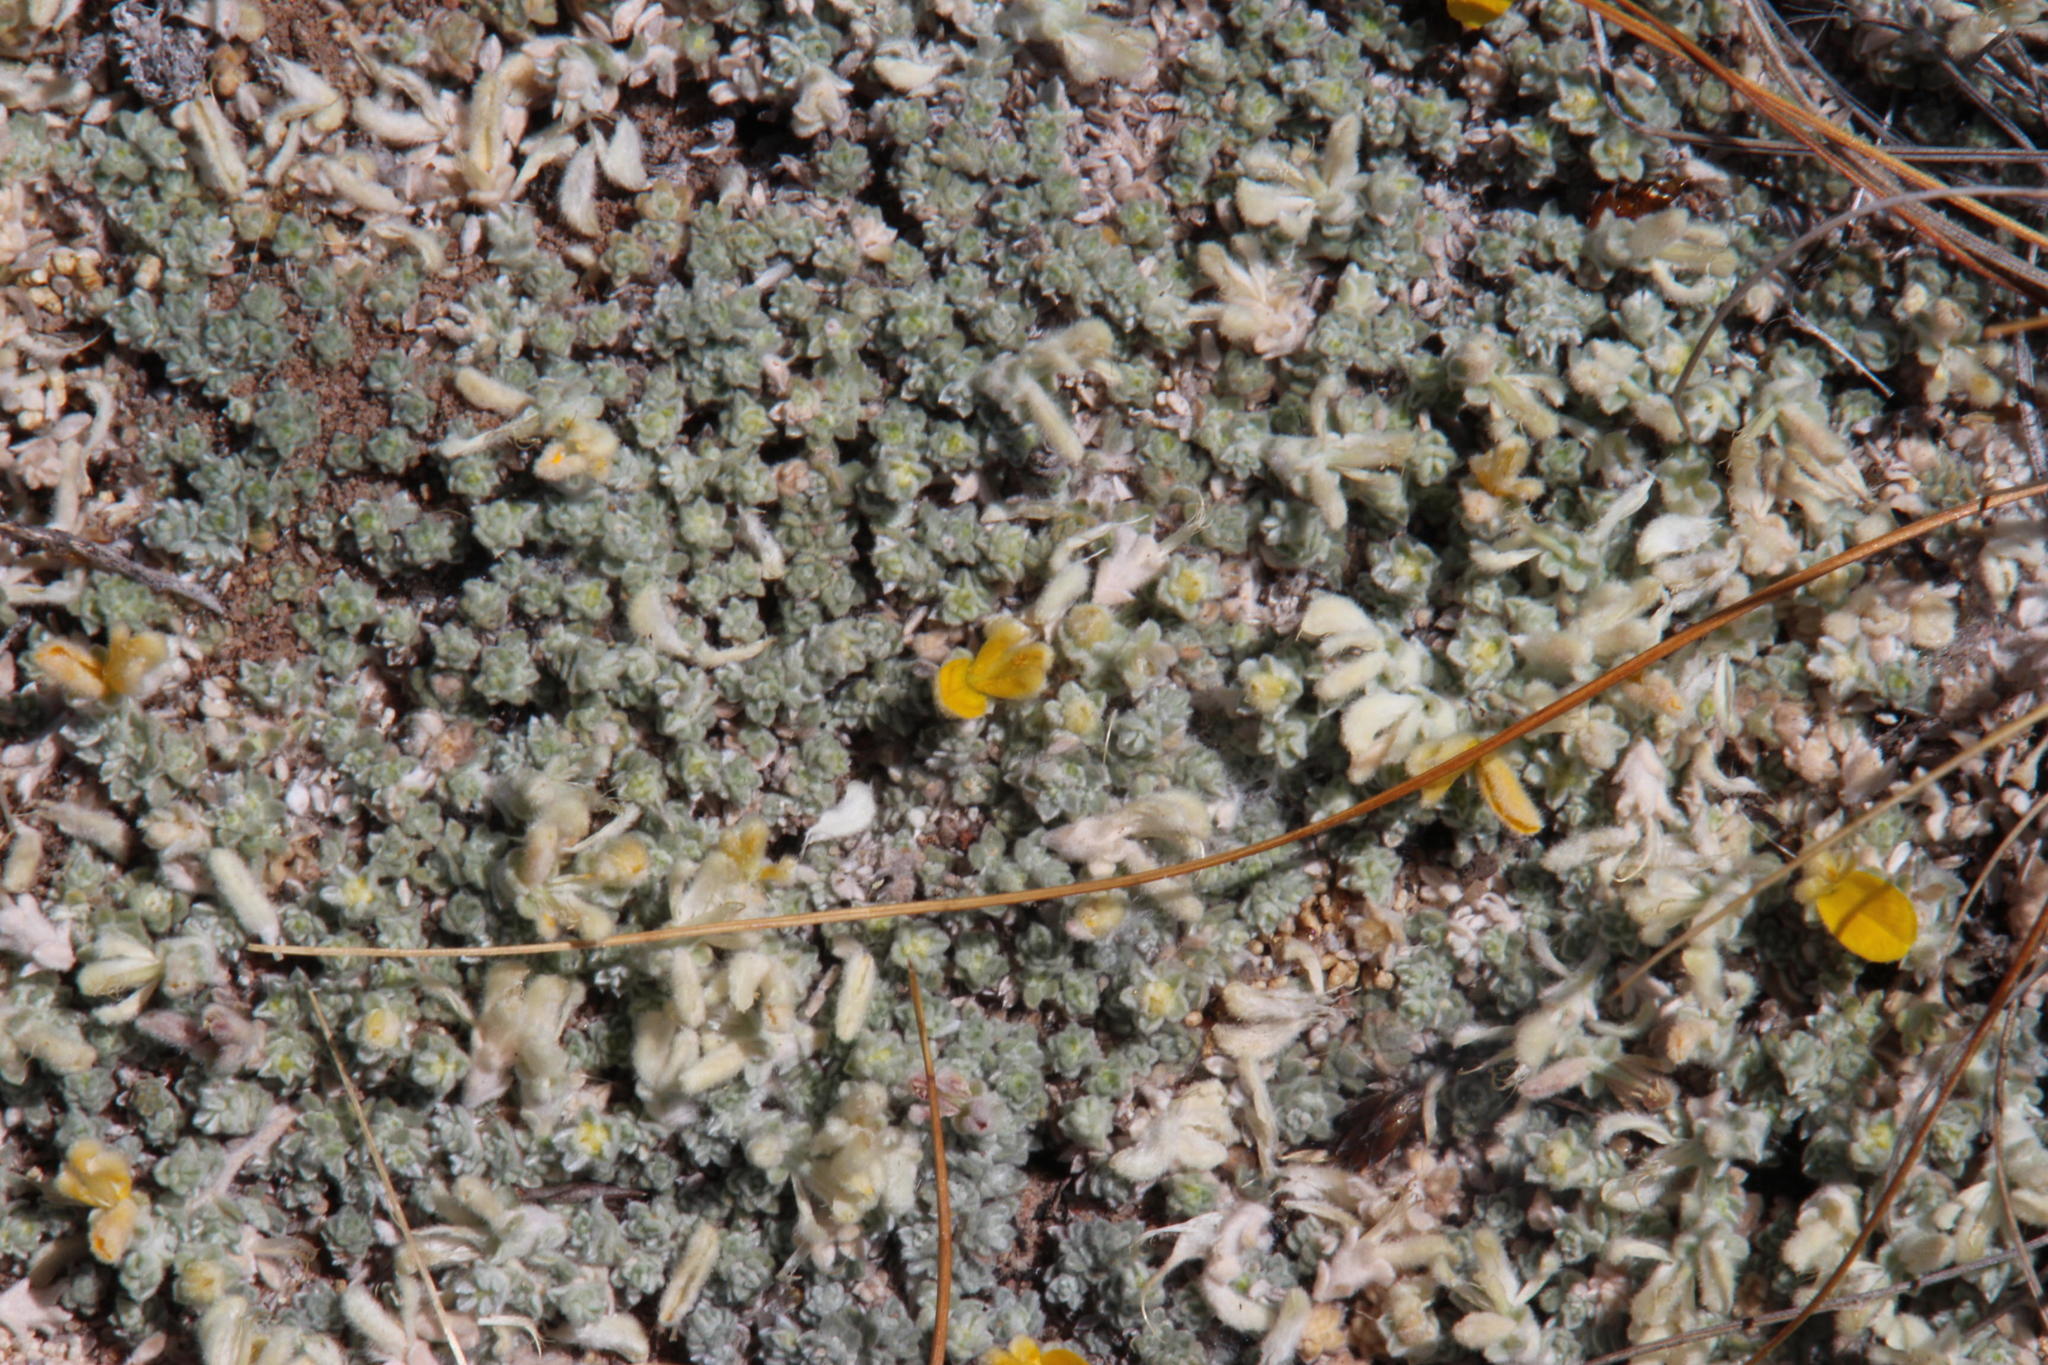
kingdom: Plantae
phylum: Tracheophyta
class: Magnoliopsida
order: Fabales
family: Fabaceae
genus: Aspalathus
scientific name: Aspalathus bodkinii
